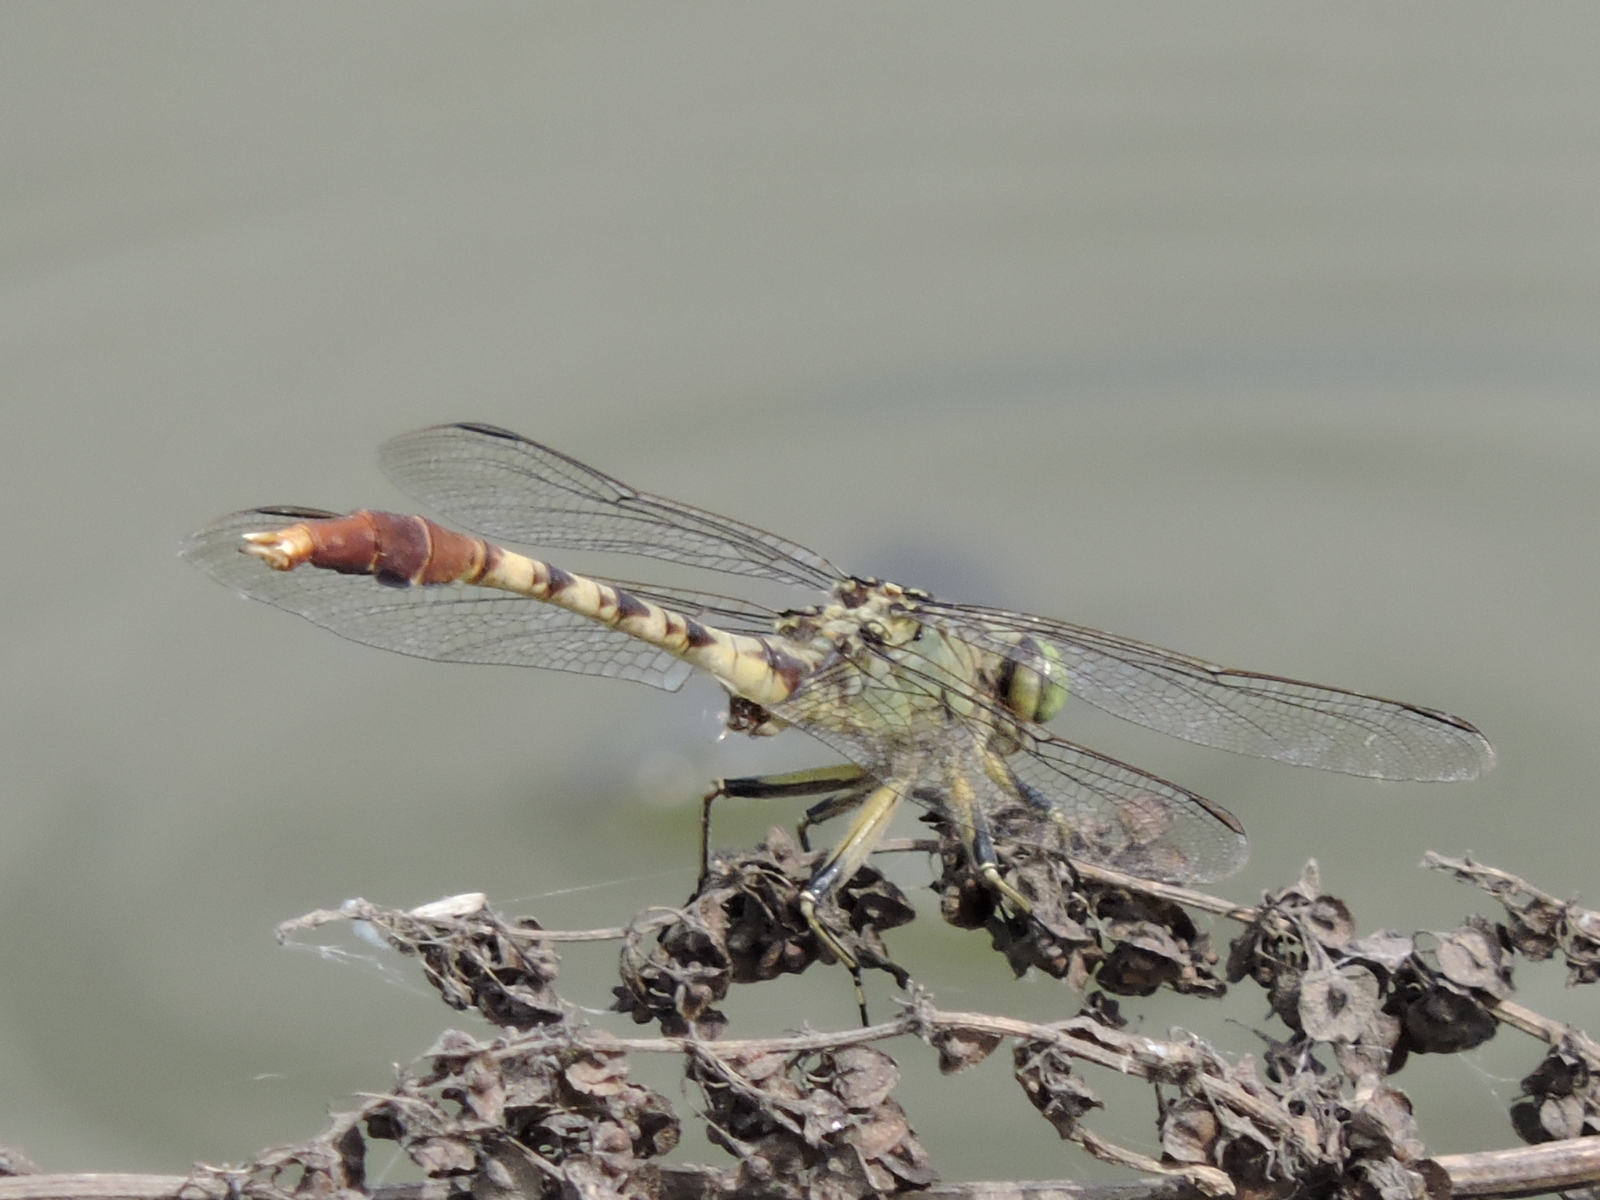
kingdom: Animalia
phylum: Arthropoda
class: Insecta
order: Odonata
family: Gomphidae
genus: Arigomphus
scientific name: Arigomphus submedianus
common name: Jade clubtail
